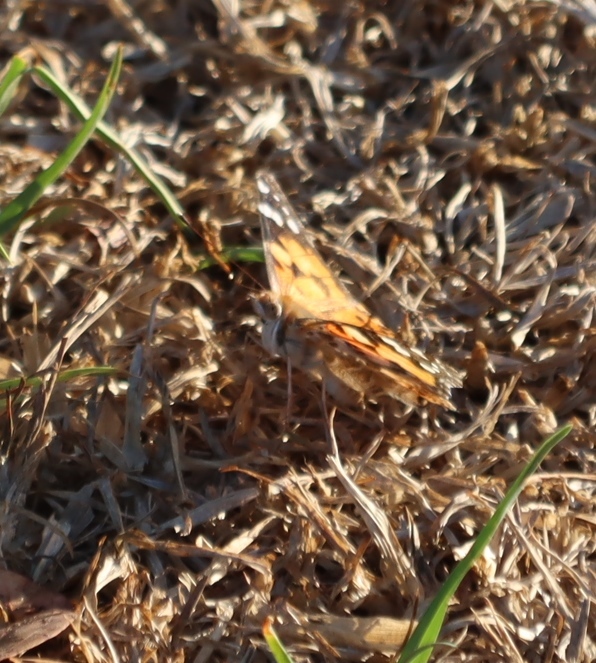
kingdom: Animalia
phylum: Arthropoda
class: Insecta
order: Lepidoptera
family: Nymphalidae
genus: Vanessa
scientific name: Vanessa cardui
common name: Painted lady
